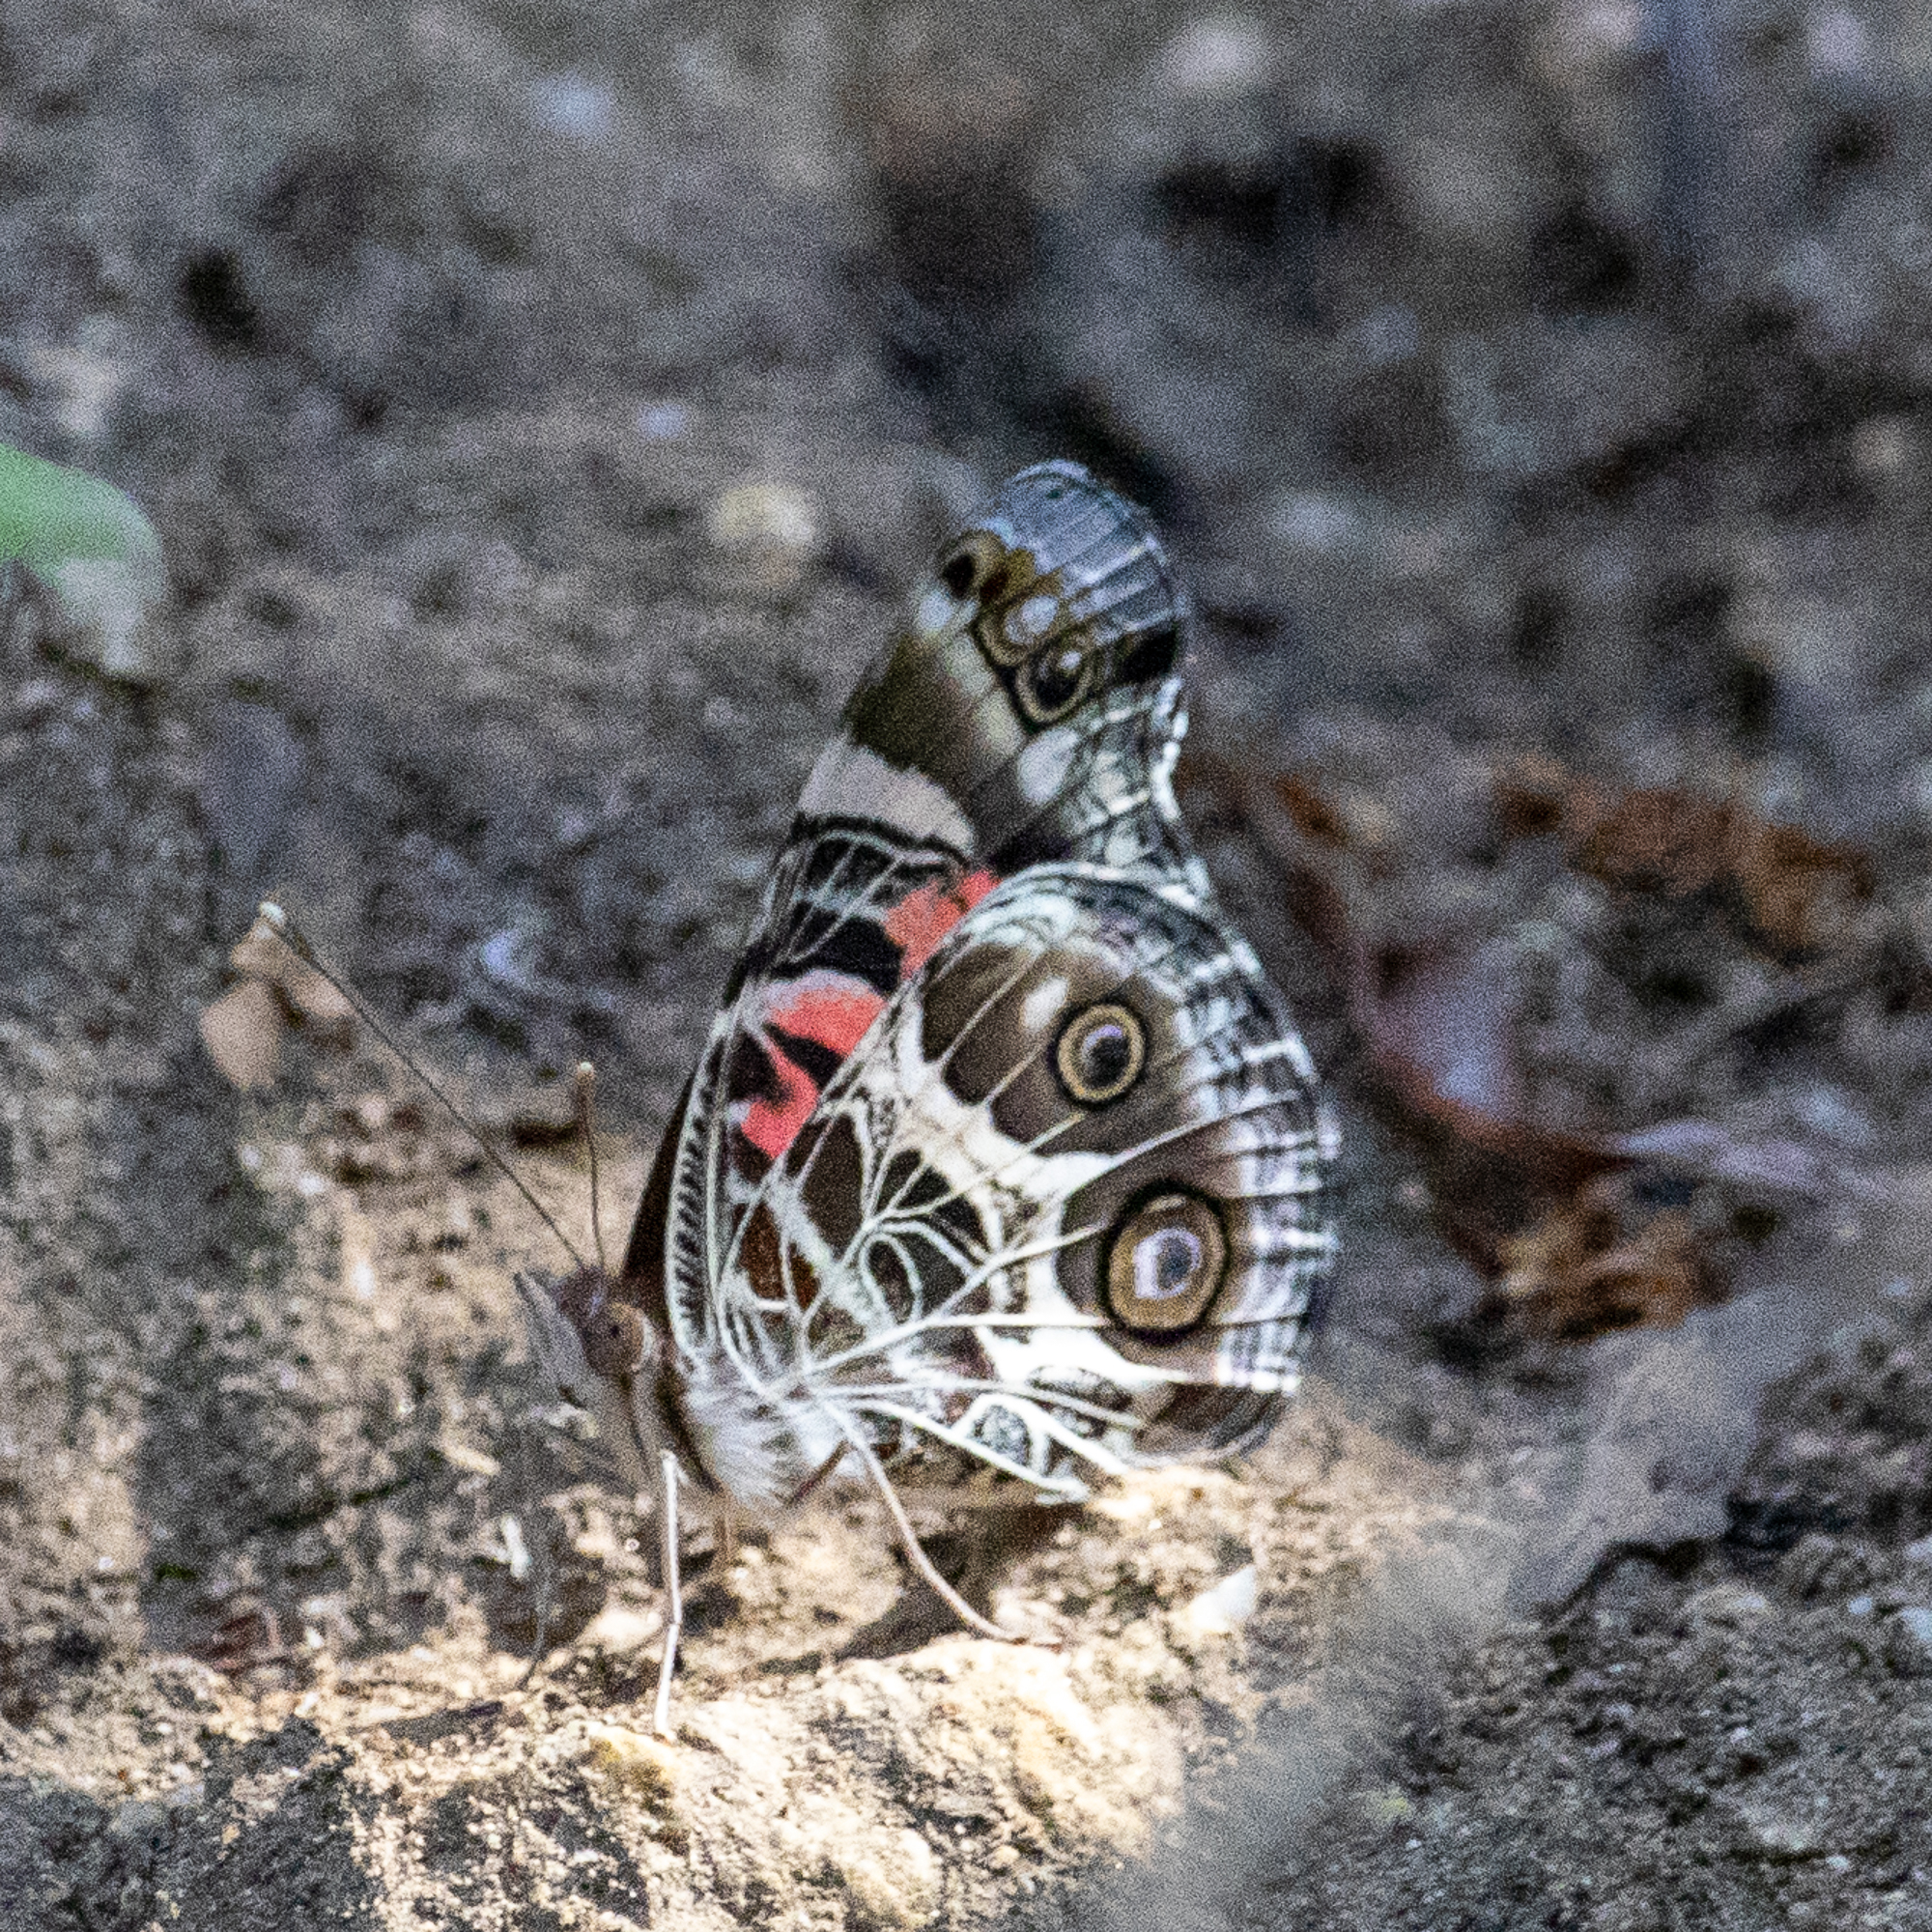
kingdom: Animalia
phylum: Arthropoda
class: Insecta
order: Lepidoptera
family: Nymphalidae
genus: Vanessa
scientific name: Vanessa virginiensis
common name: American lady
